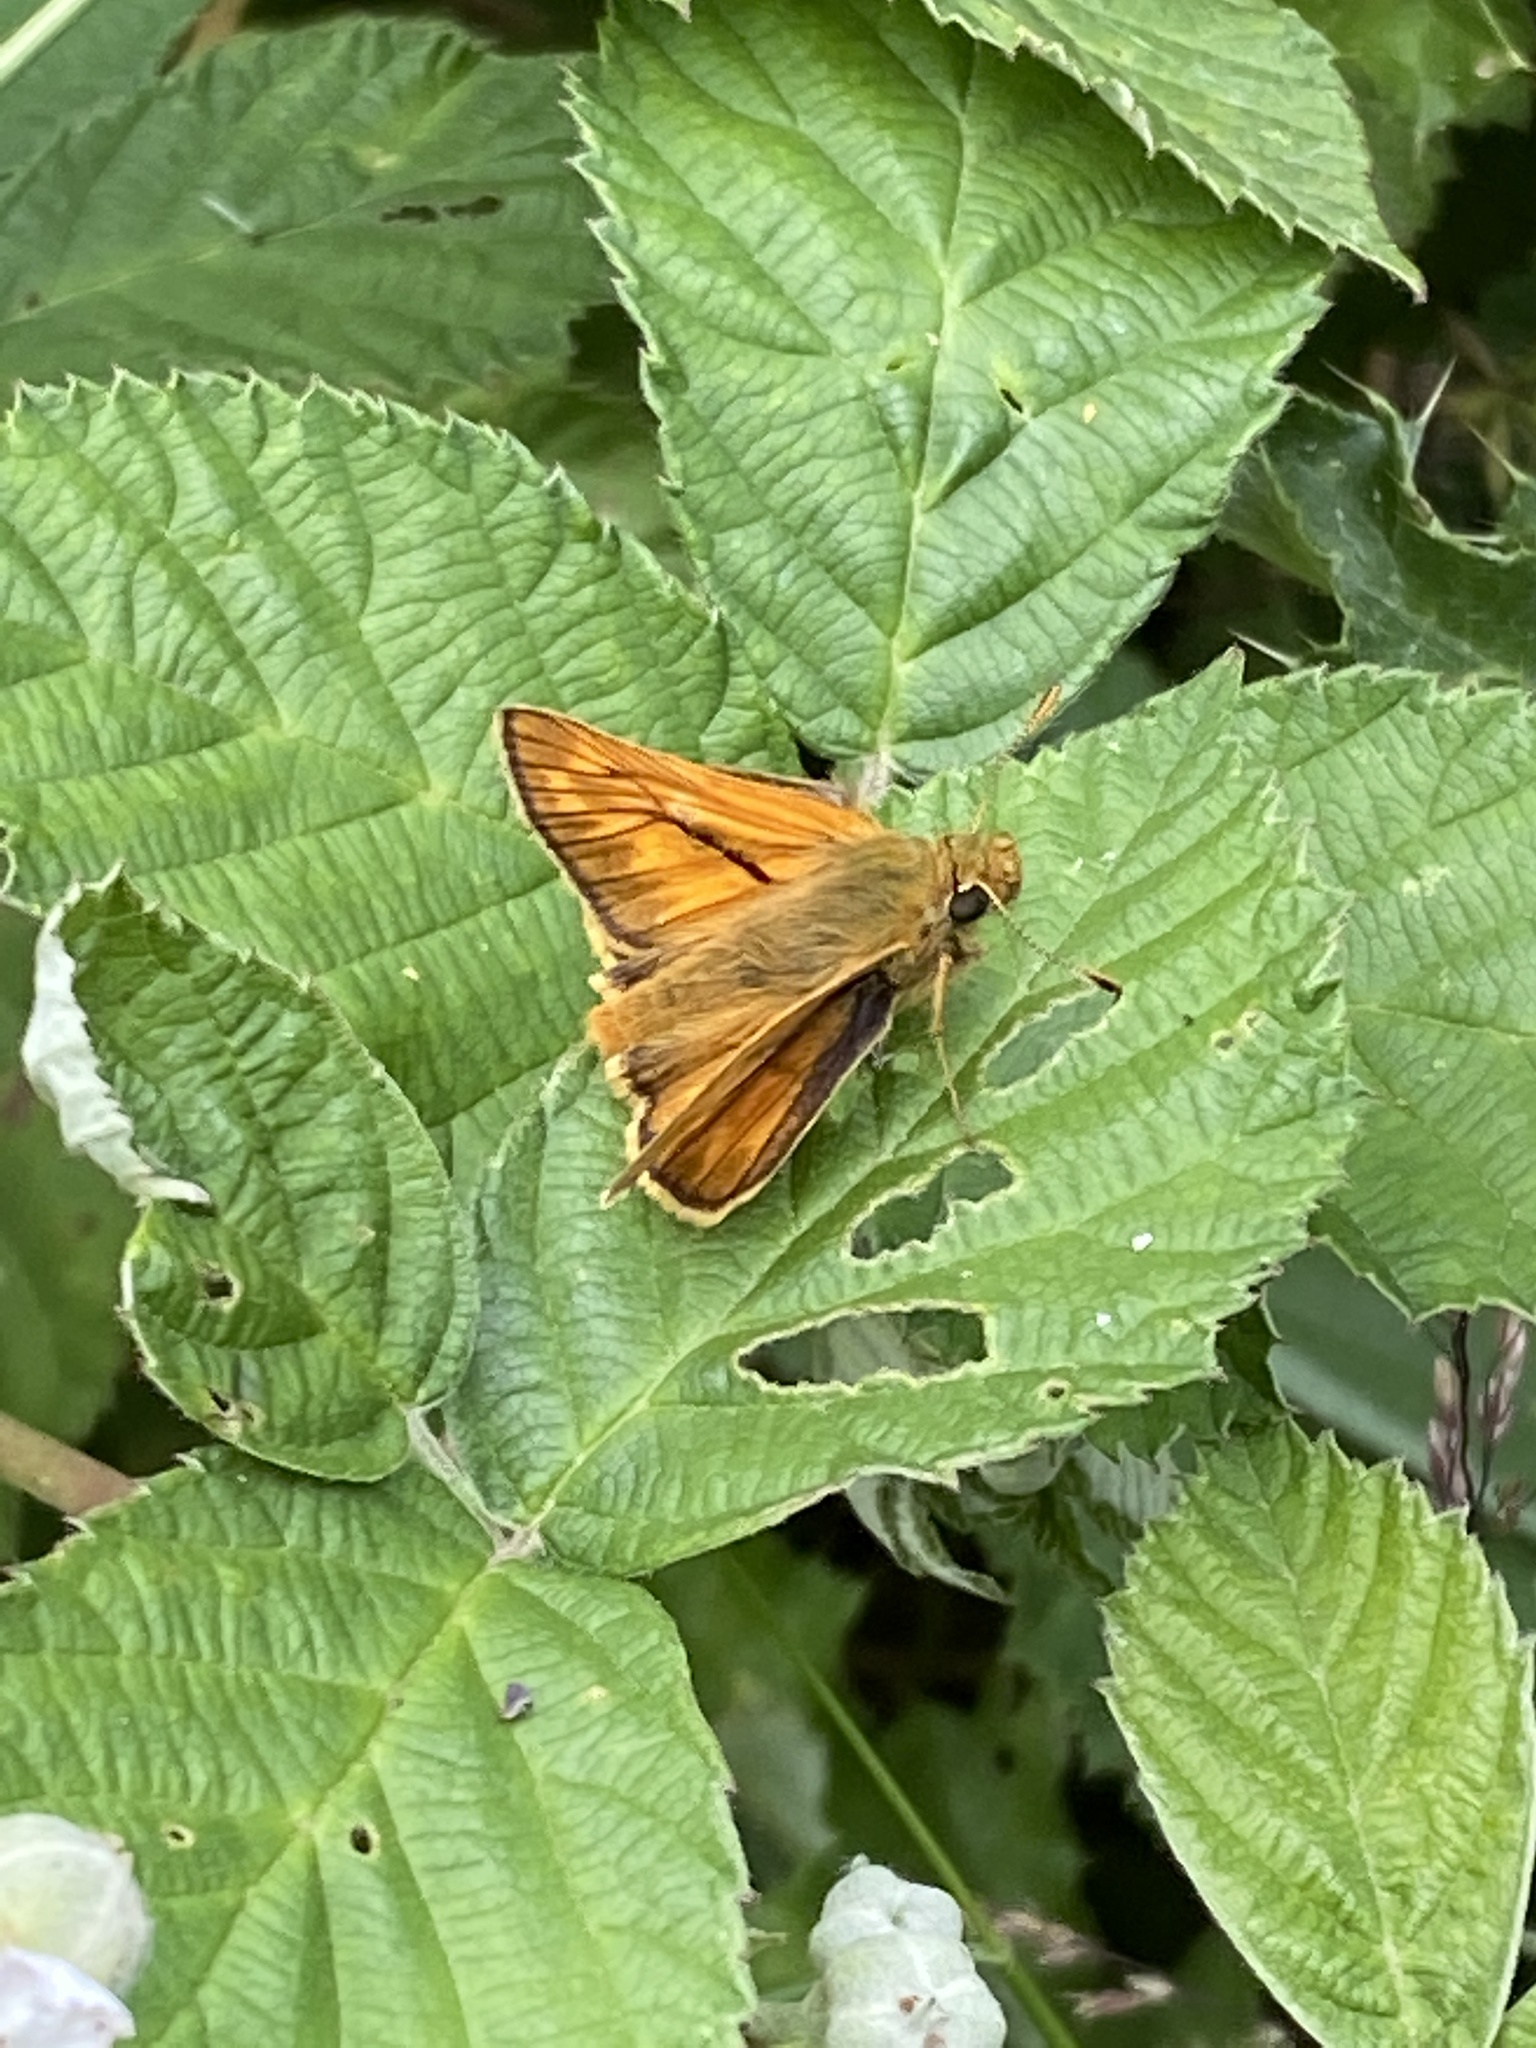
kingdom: Animalia
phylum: Arthropoda
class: Insecta
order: Lepidoptera
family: Hesperiidae
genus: Ochlodes
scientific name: Ochlodes venata
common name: Large skipper
